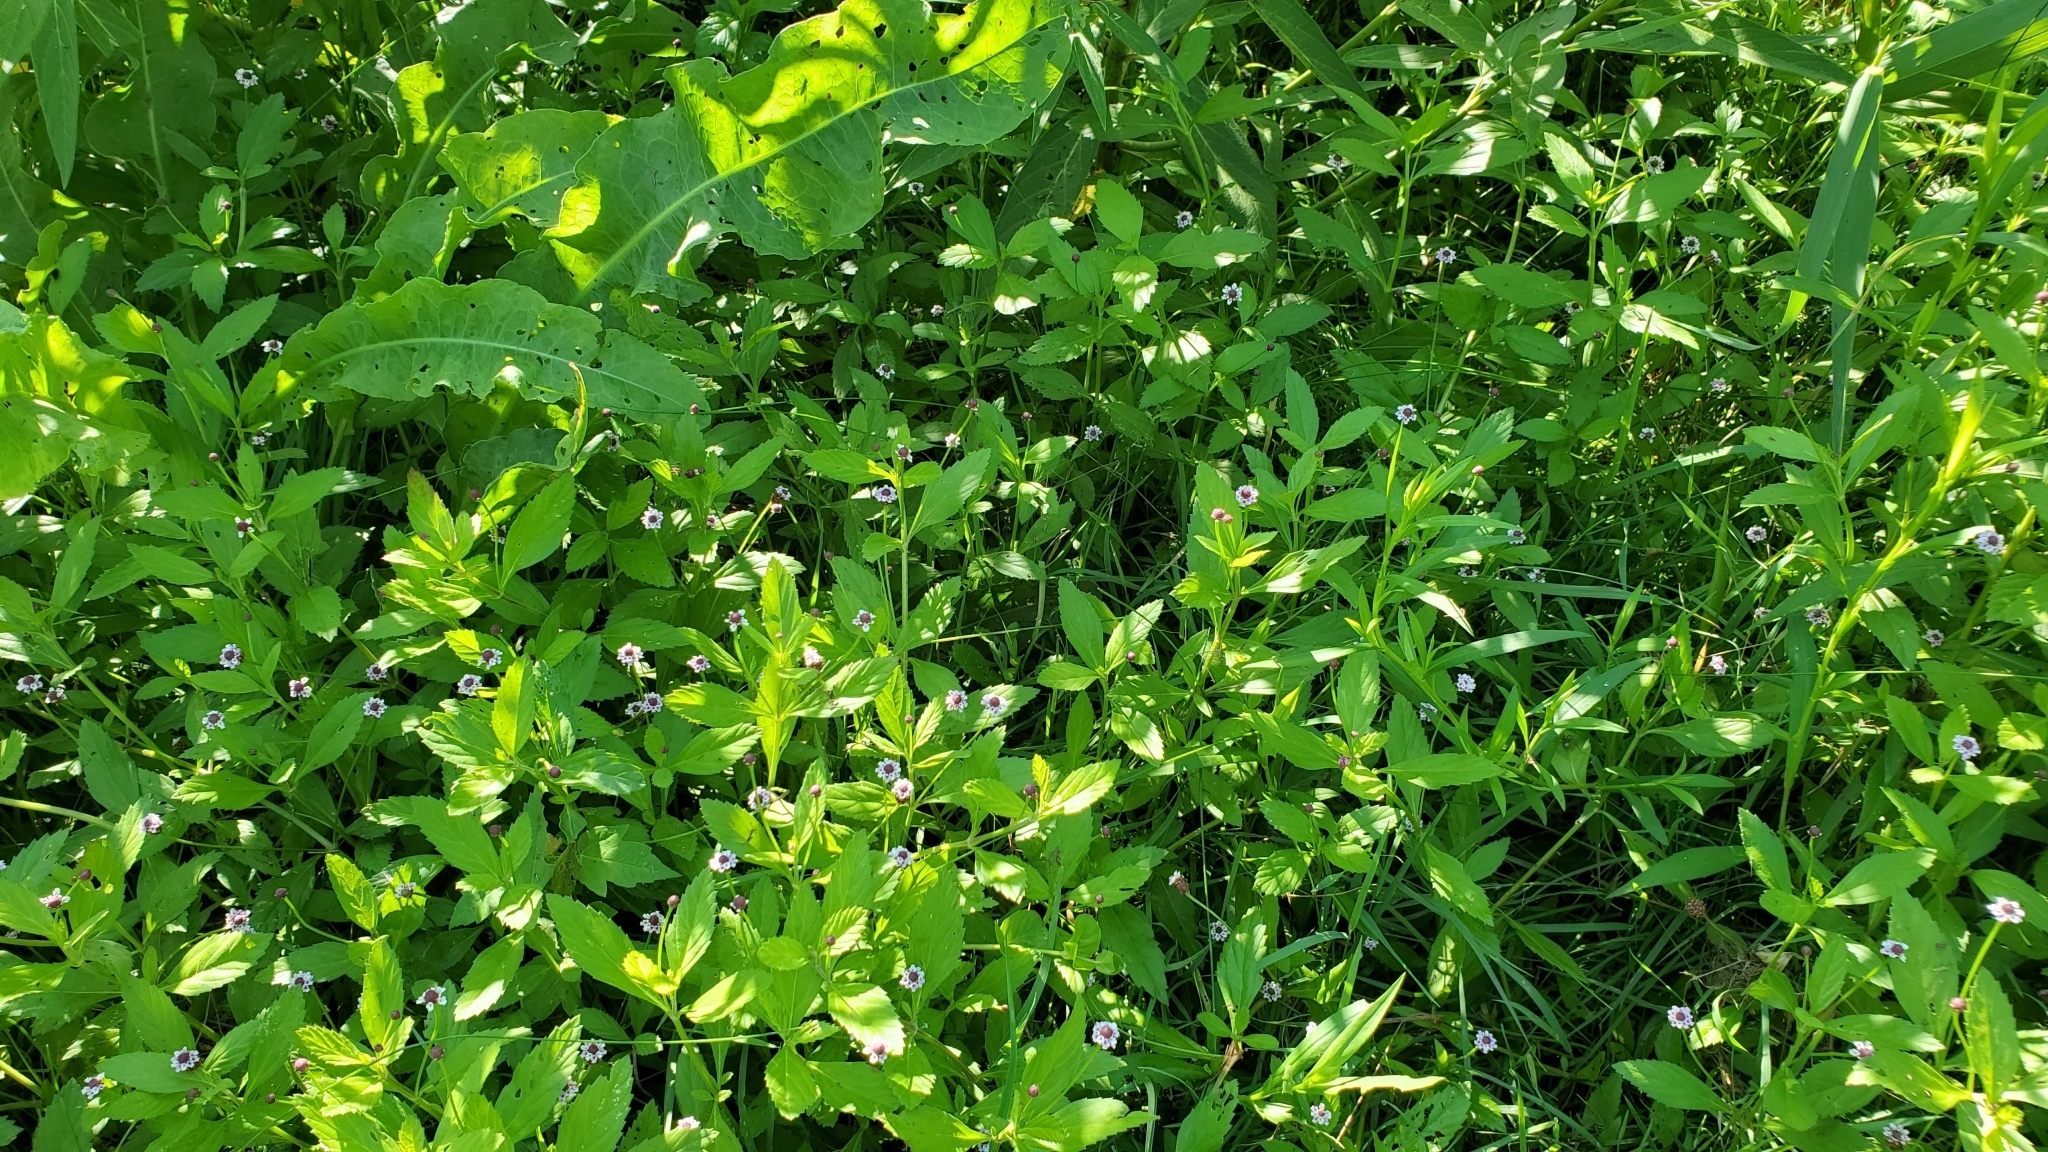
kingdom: Plantae
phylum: Tracheophyta
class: Magnoliopsida
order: Lamiales
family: Verbenaceae
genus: Phyla
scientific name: Phyla lanceolata
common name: Northern fogfruit
